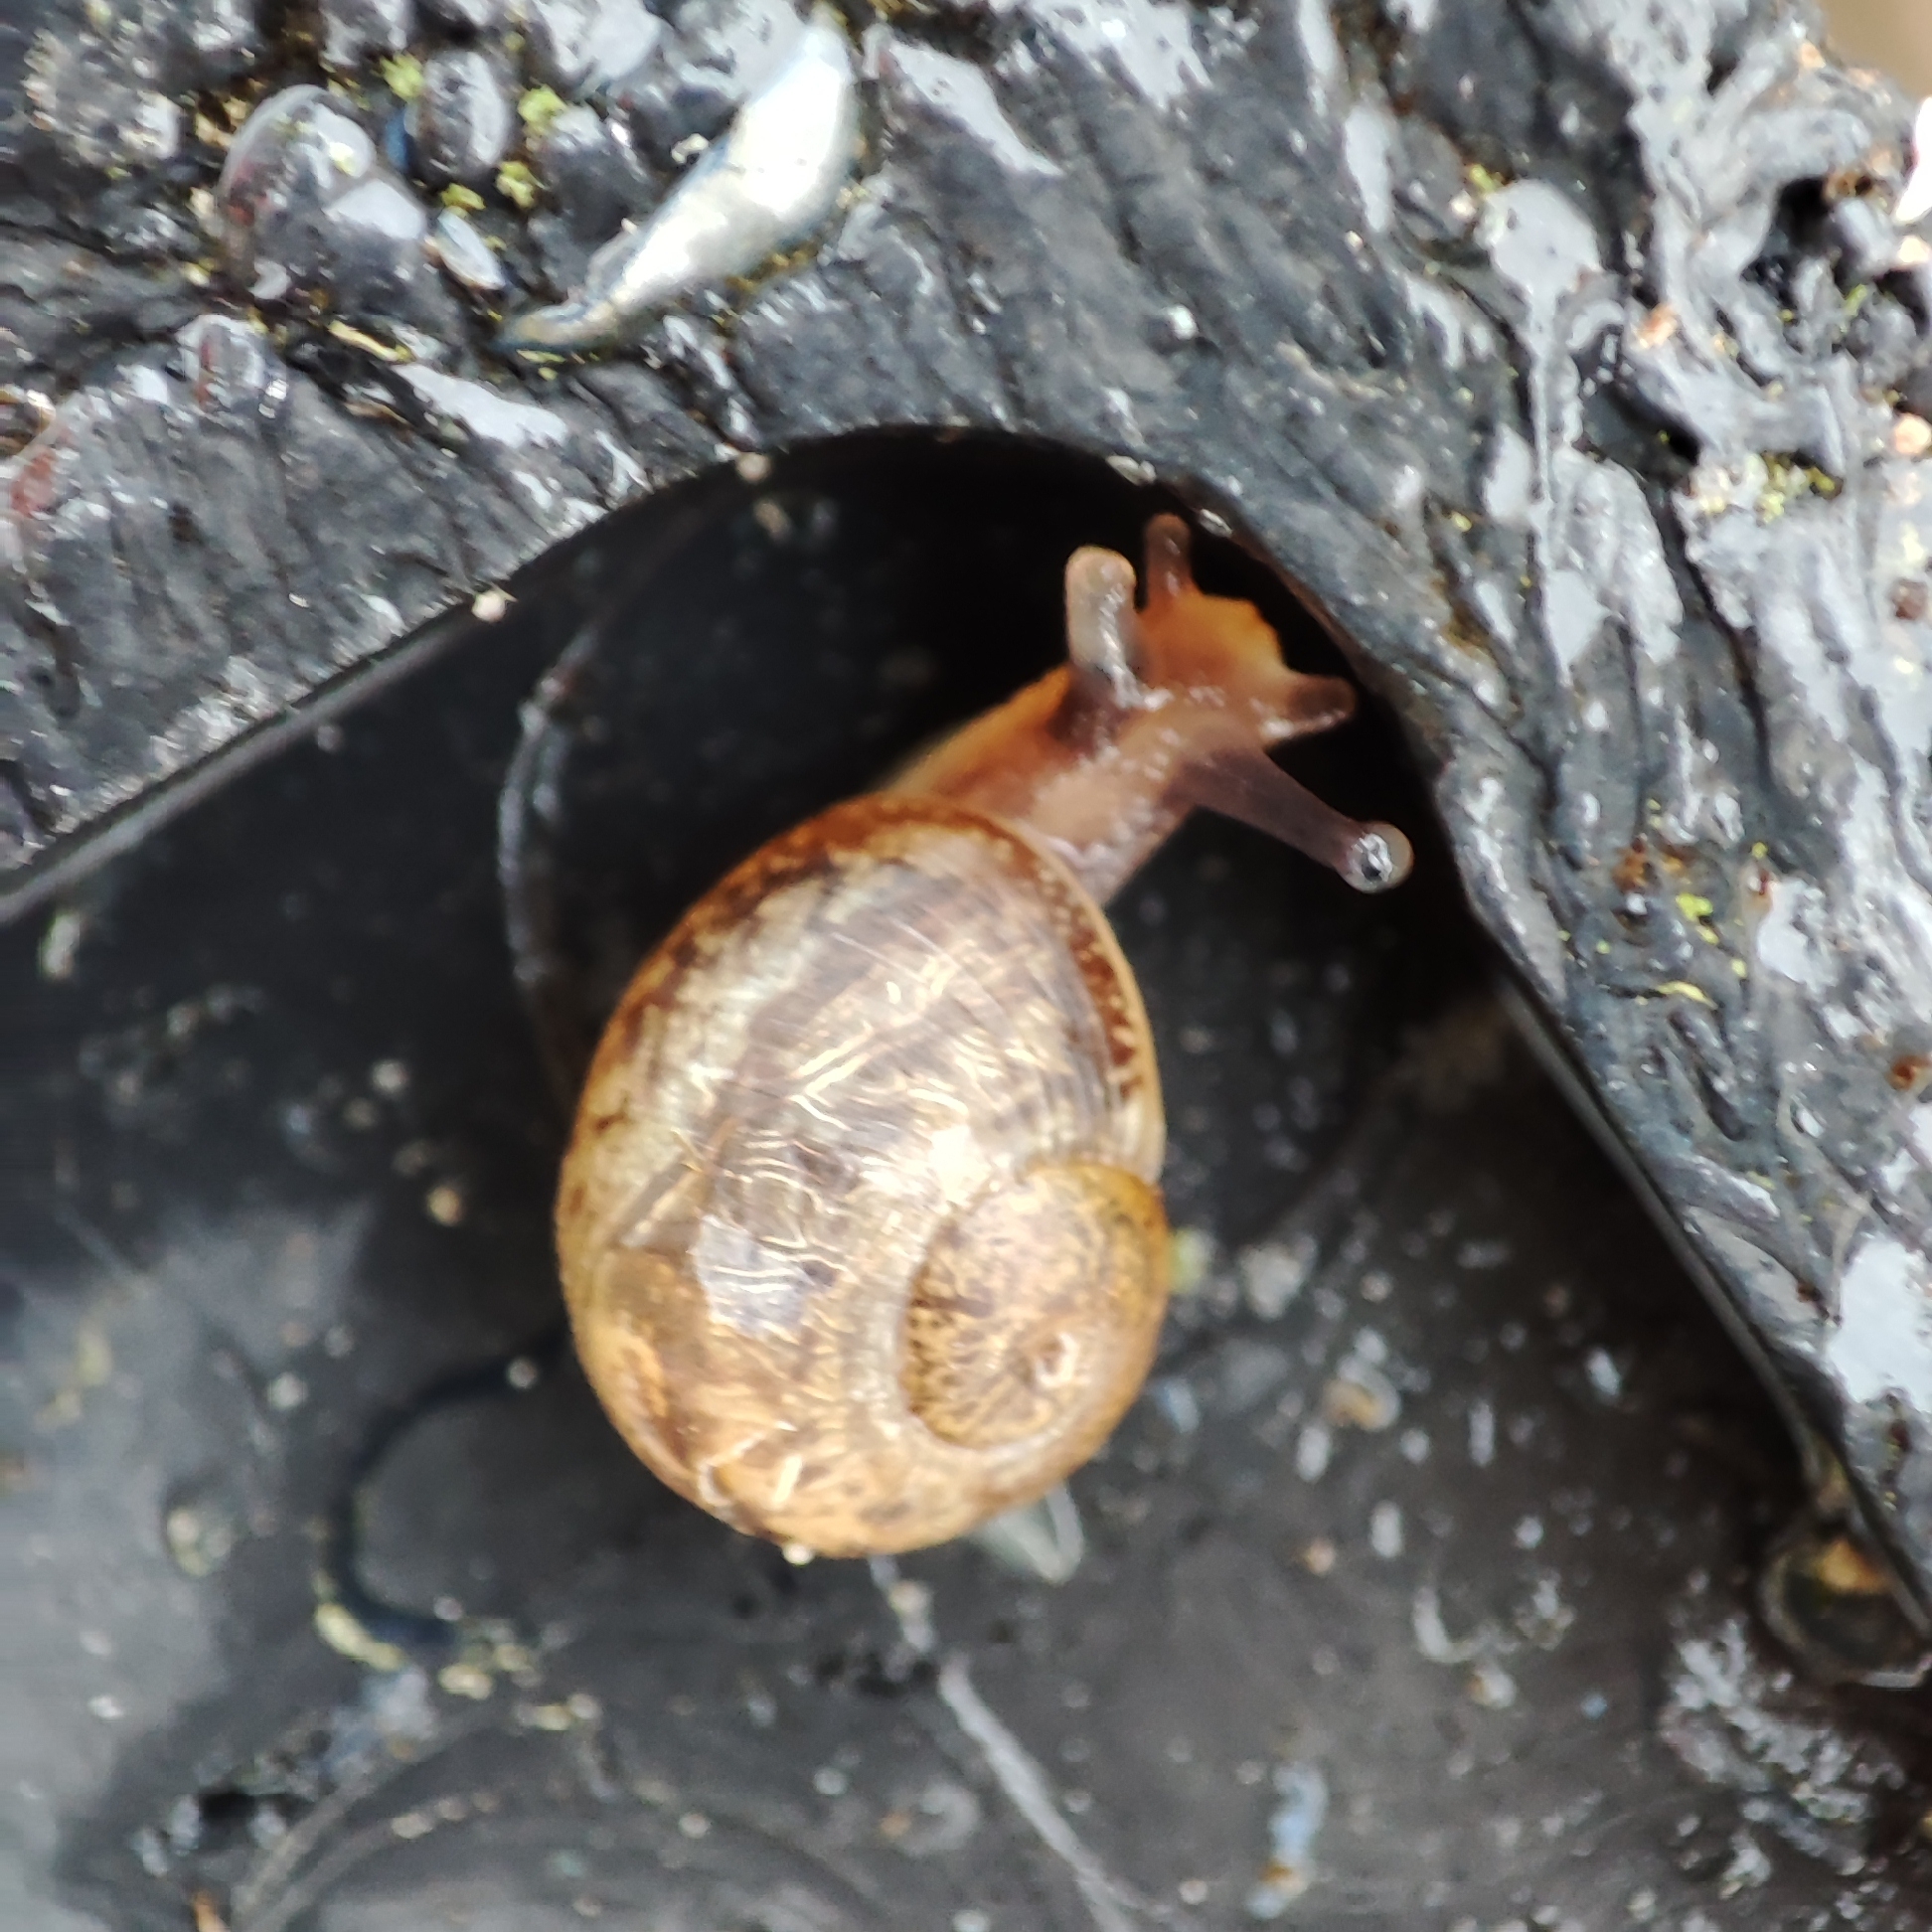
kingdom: Animalia
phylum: Mollusca
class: Gastropoda
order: Stylommatophora
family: Helicidae
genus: Cornu
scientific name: Cornu aspersum
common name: Brown garden snail
